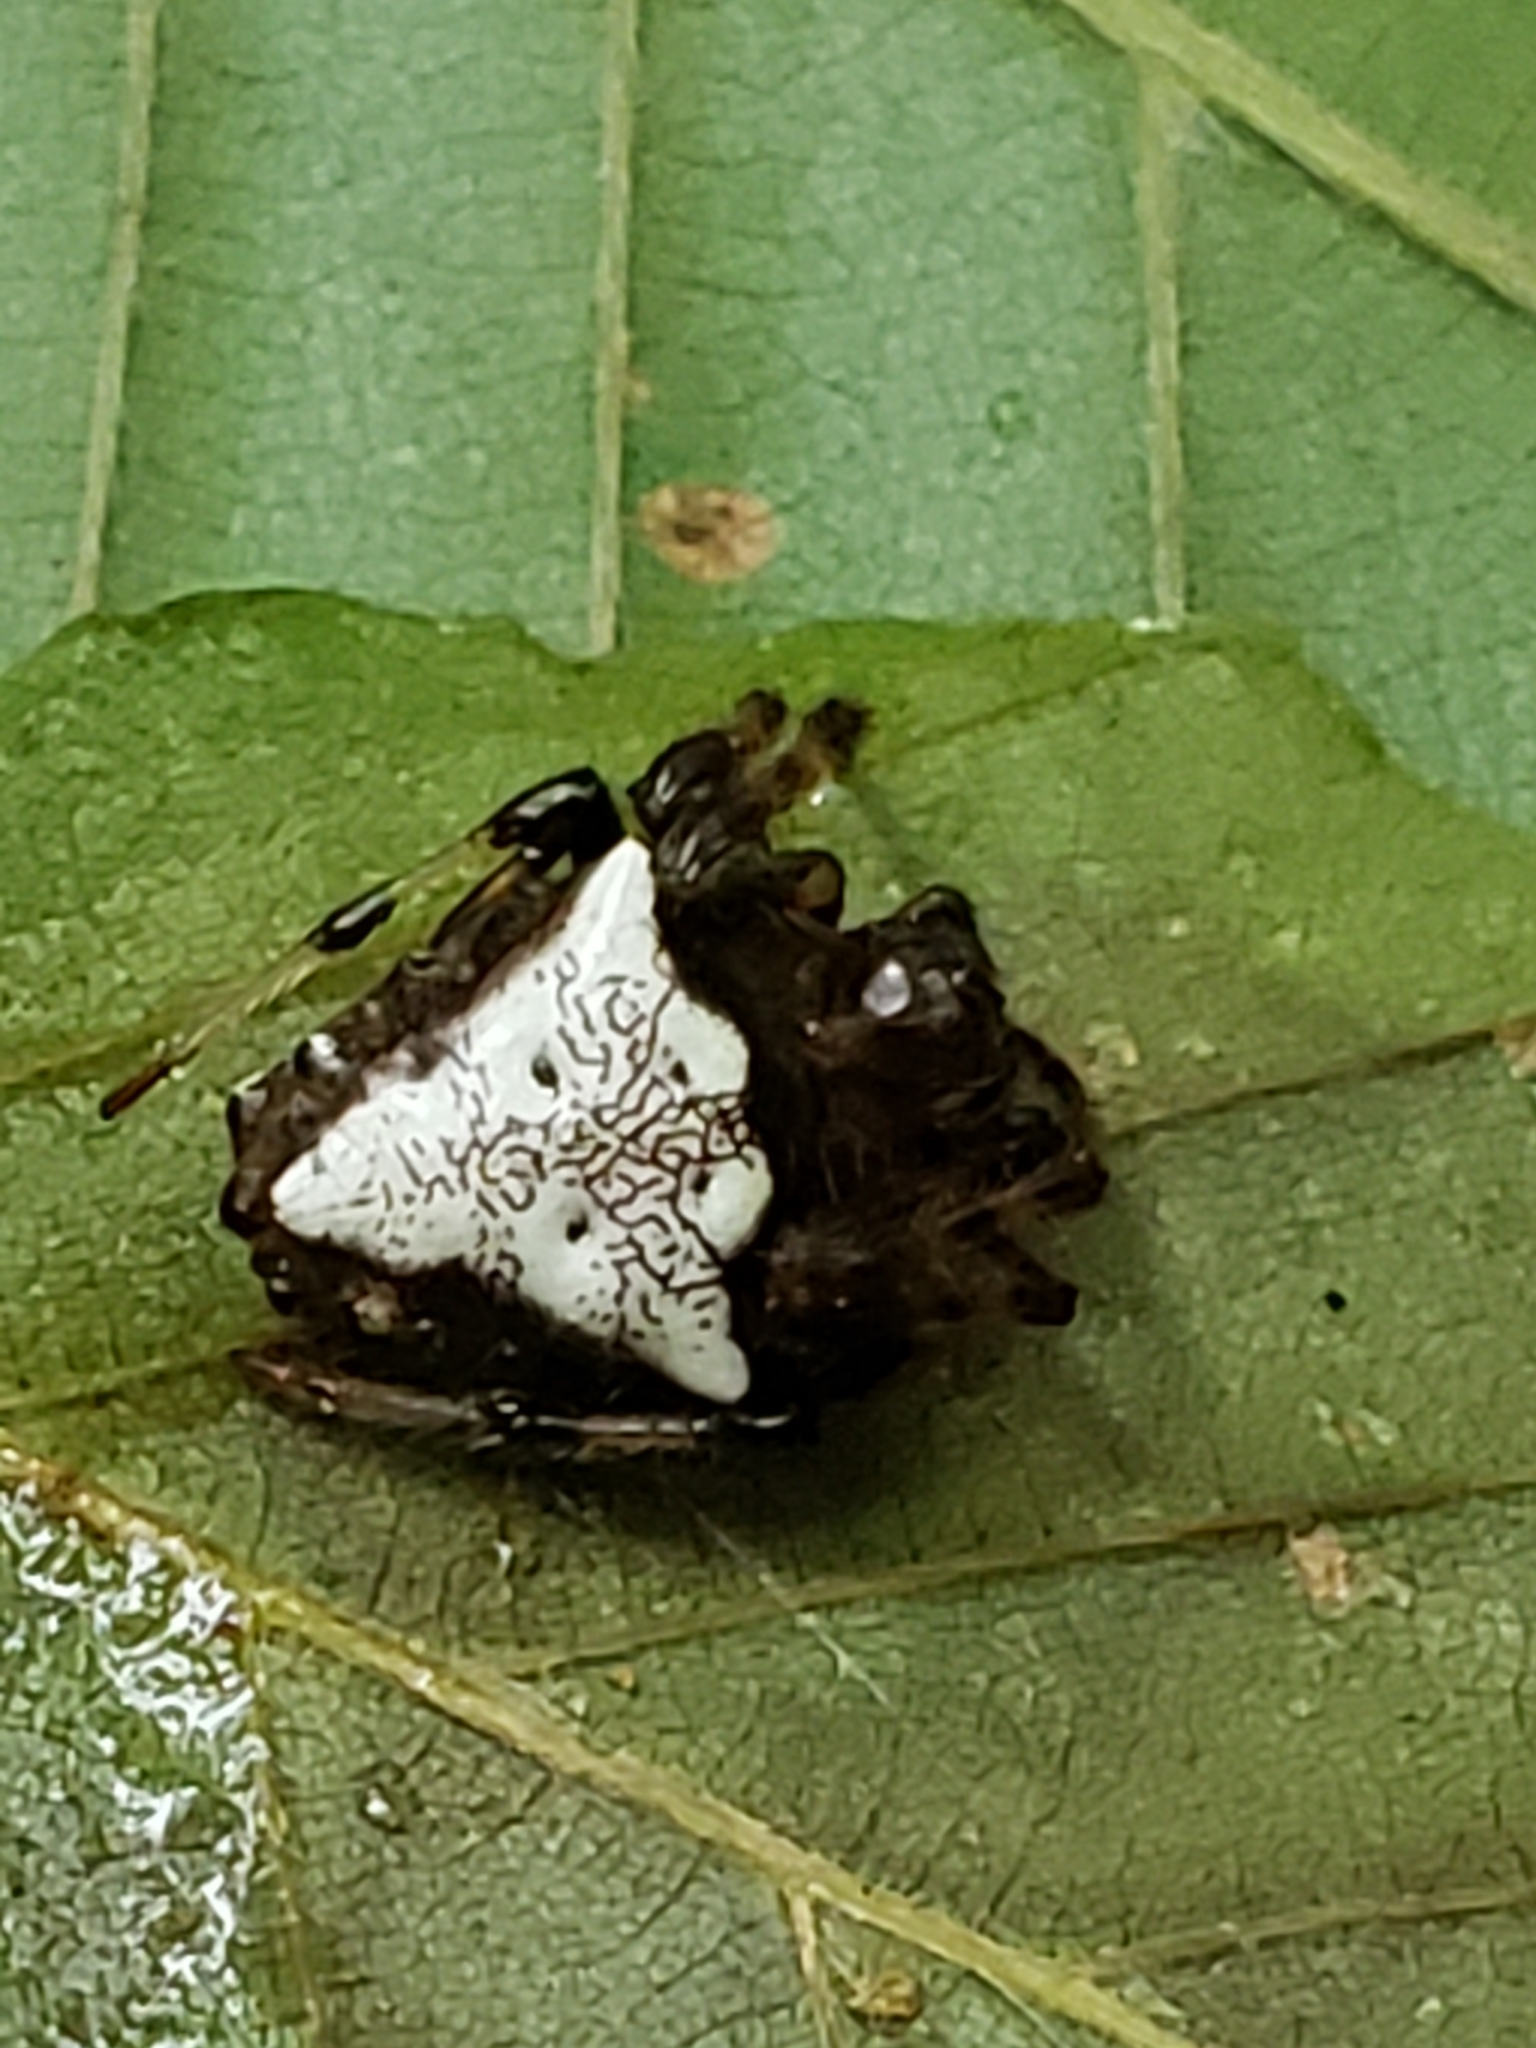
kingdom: Animalia
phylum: Arthropoda
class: Arachnida
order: Araneae
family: Araneidae
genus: Verrucosa
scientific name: Verrucosa arenata
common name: Orb weavers
